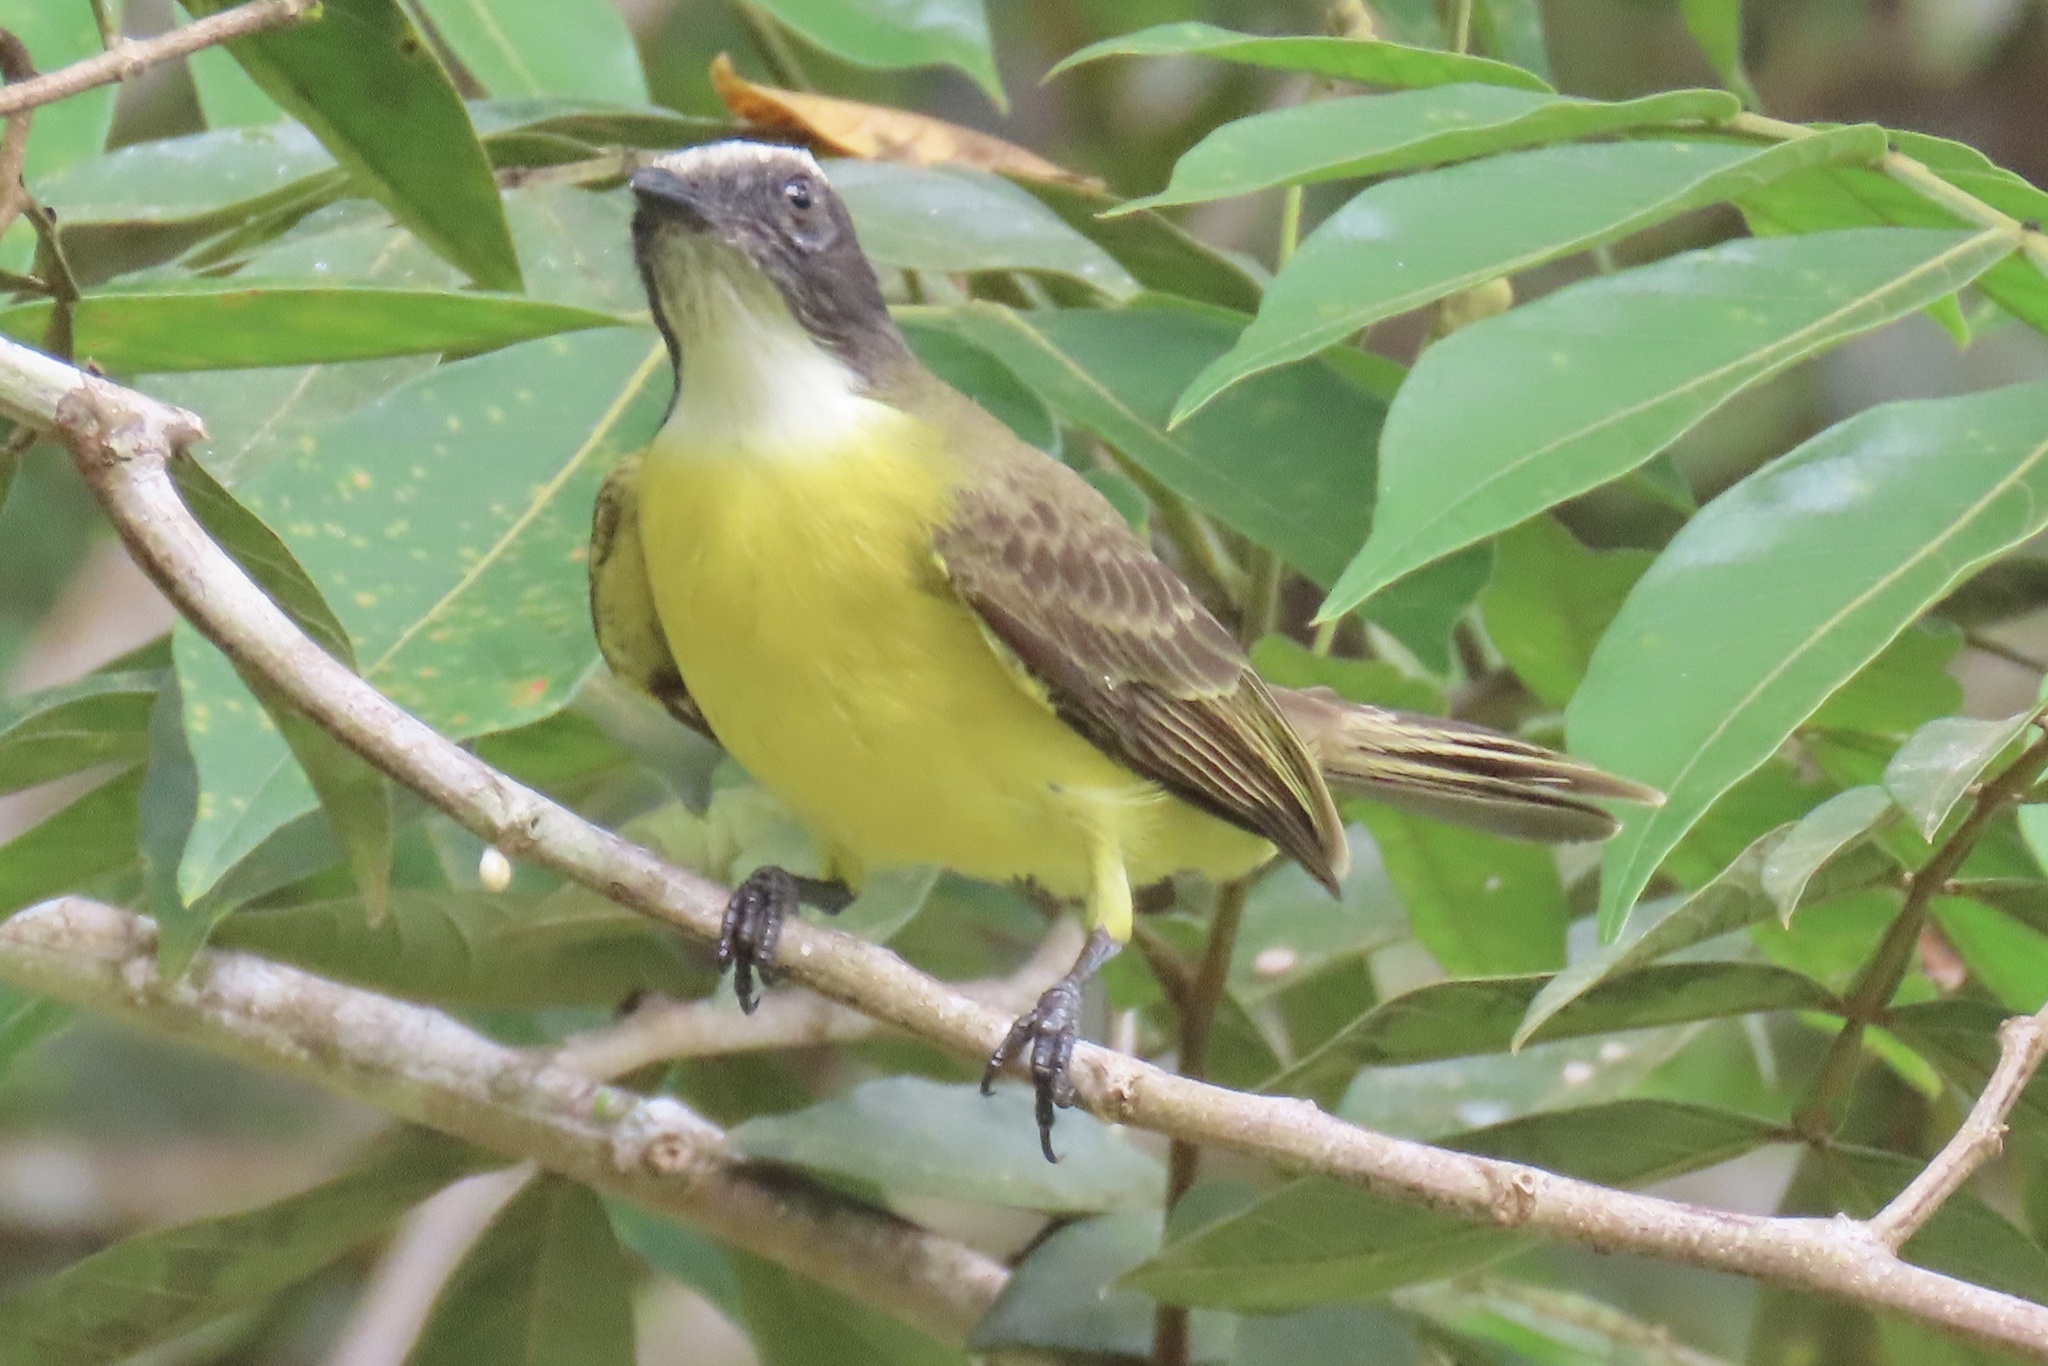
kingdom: Animalia
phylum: Chordata
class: Aves
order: Passeriformes
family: Tyrannidae
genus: Myiozetetes
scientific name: Myiozetetes similis
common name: Social flycatcher
